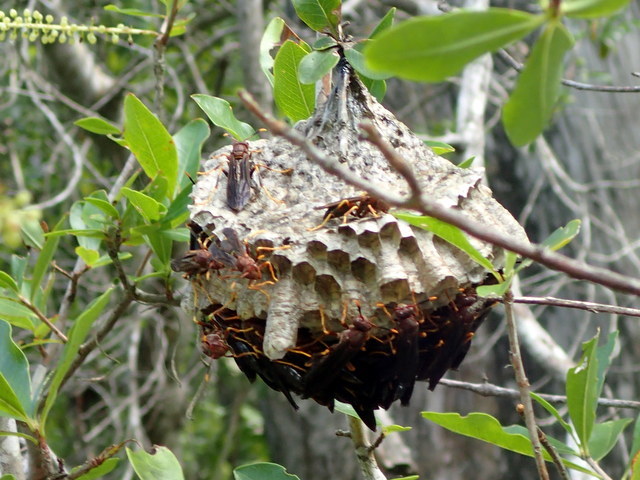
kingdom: Animalia
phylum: Arthropoda
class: Insecta
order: Hymenoptera
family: Eumenidae
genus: Polistes
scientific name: Polistes annularis
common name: Ringed paper wasp
